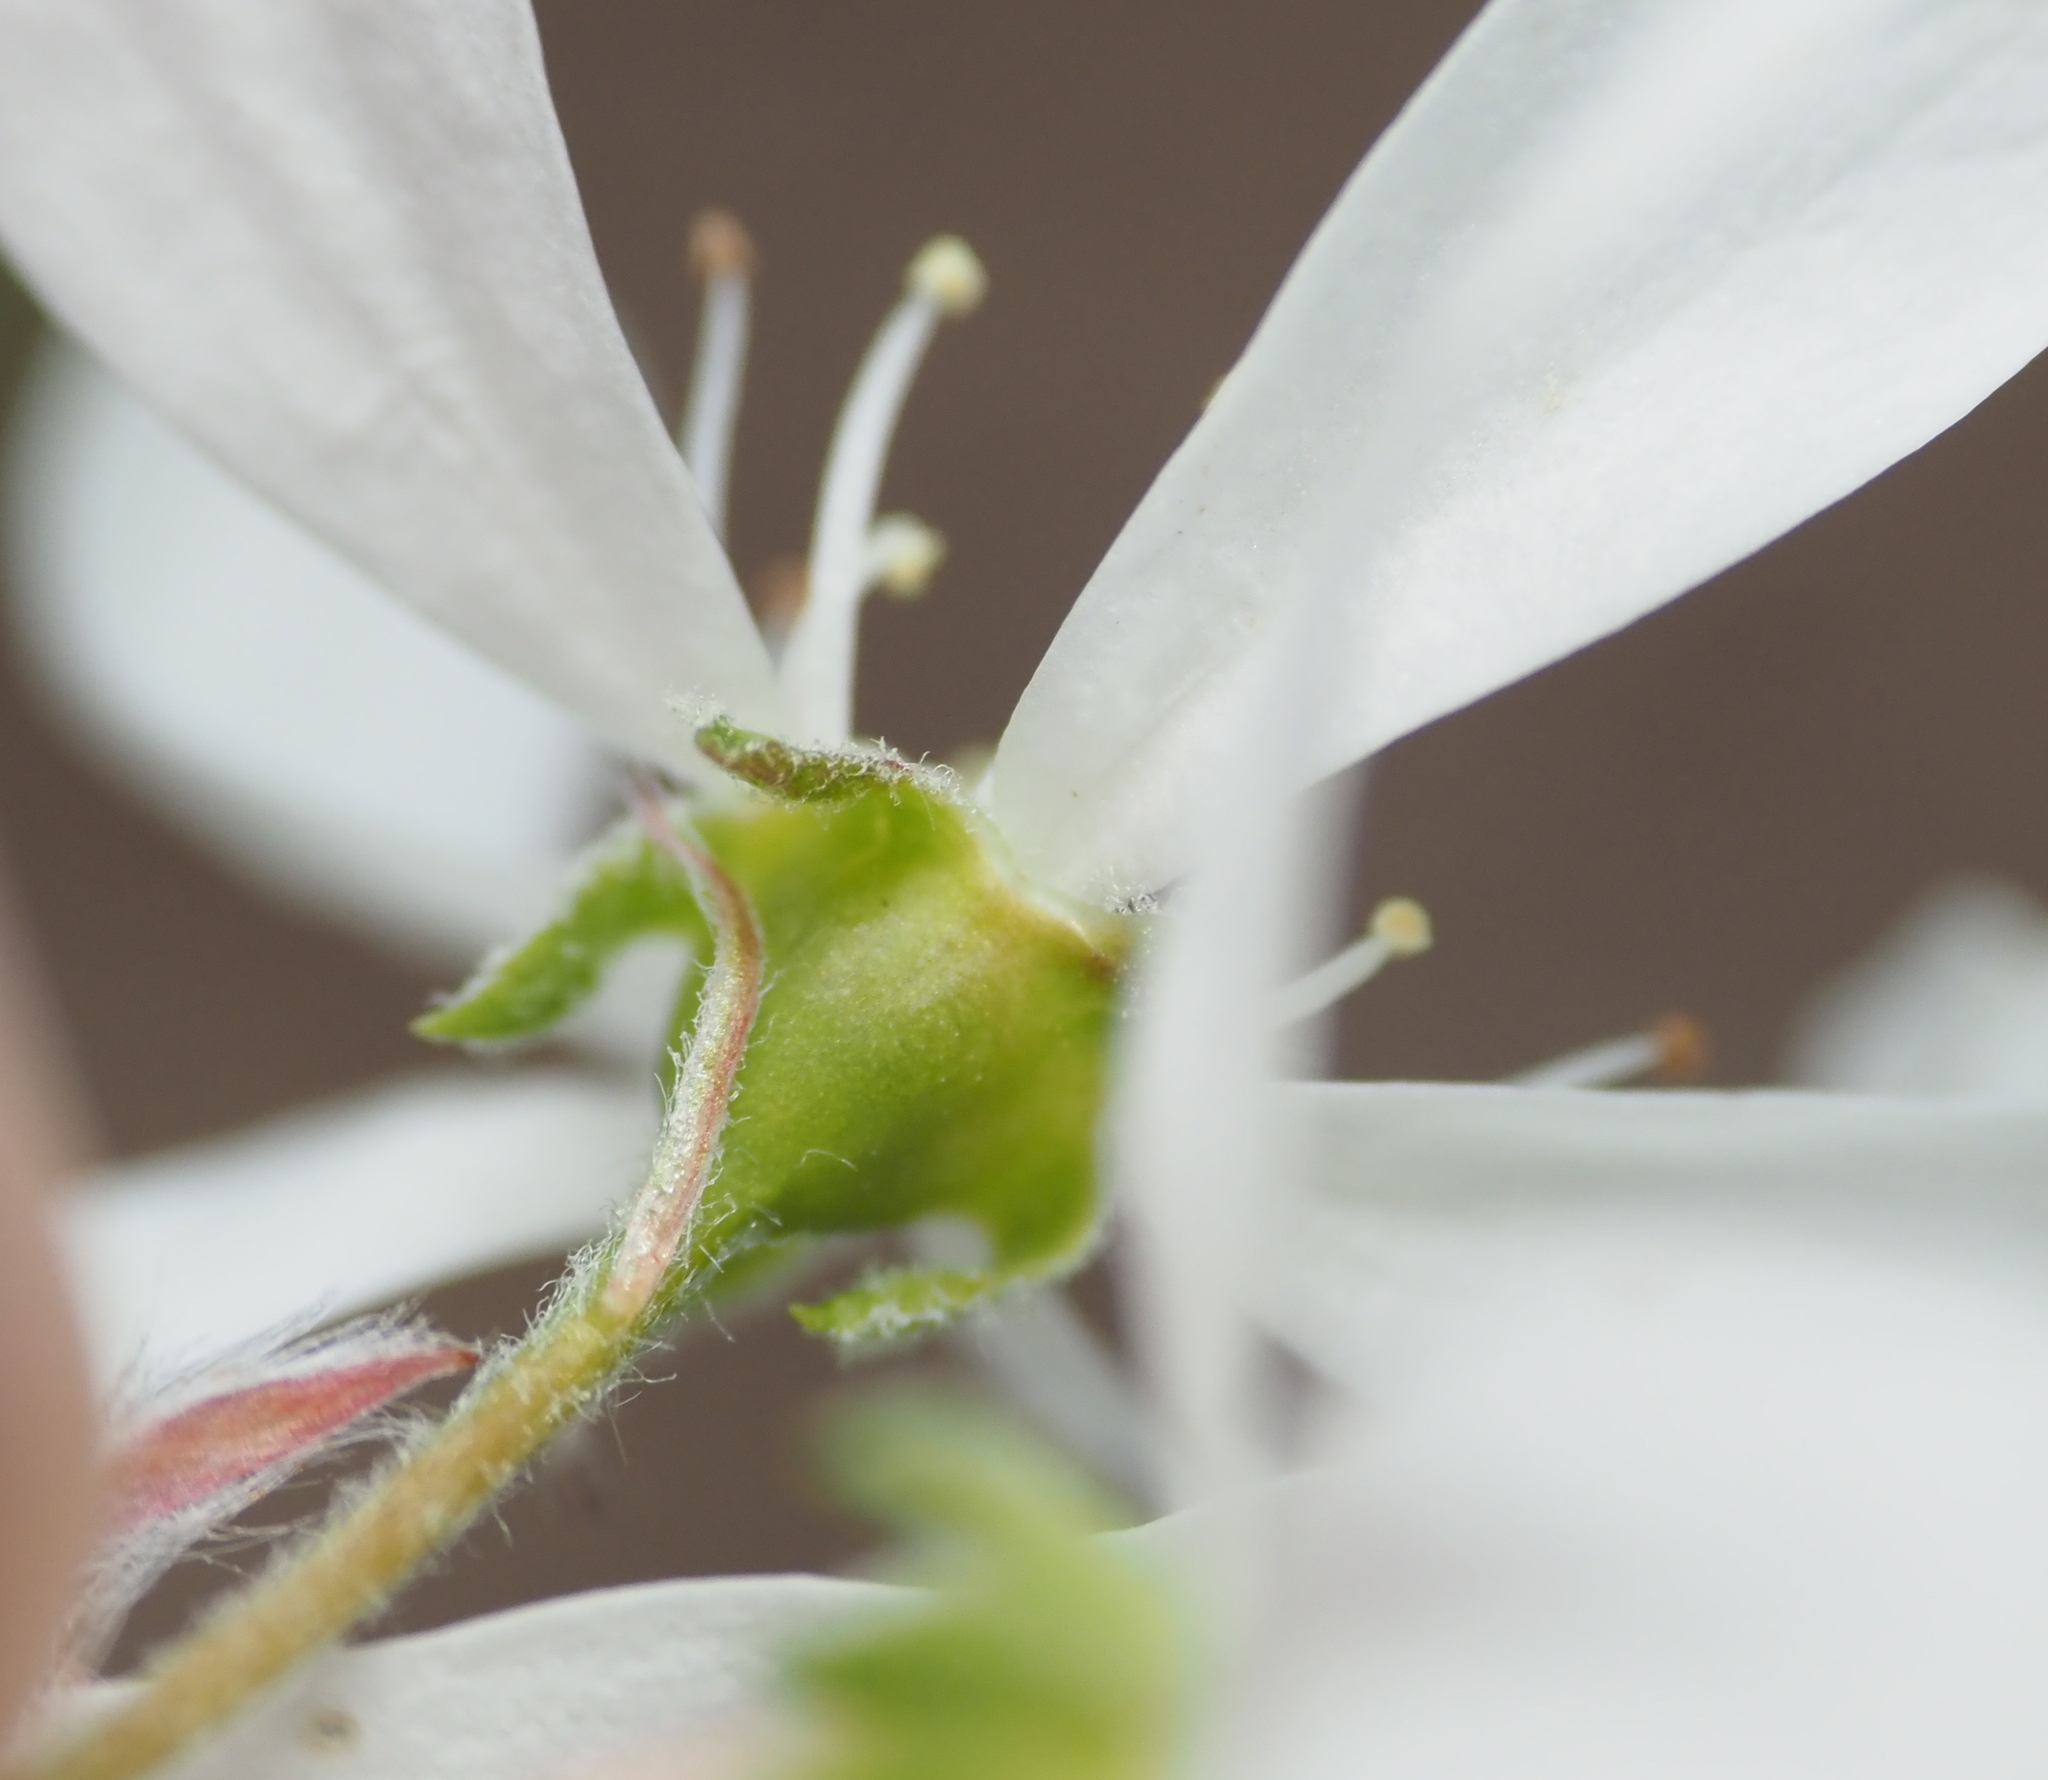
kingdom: Plantae
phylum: Tracheophyta
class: Magnoliopsida
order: Rosales
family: Rosaceae
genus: Amelanchier
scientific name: Amelanchier arborea
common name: Downy serviceberry
